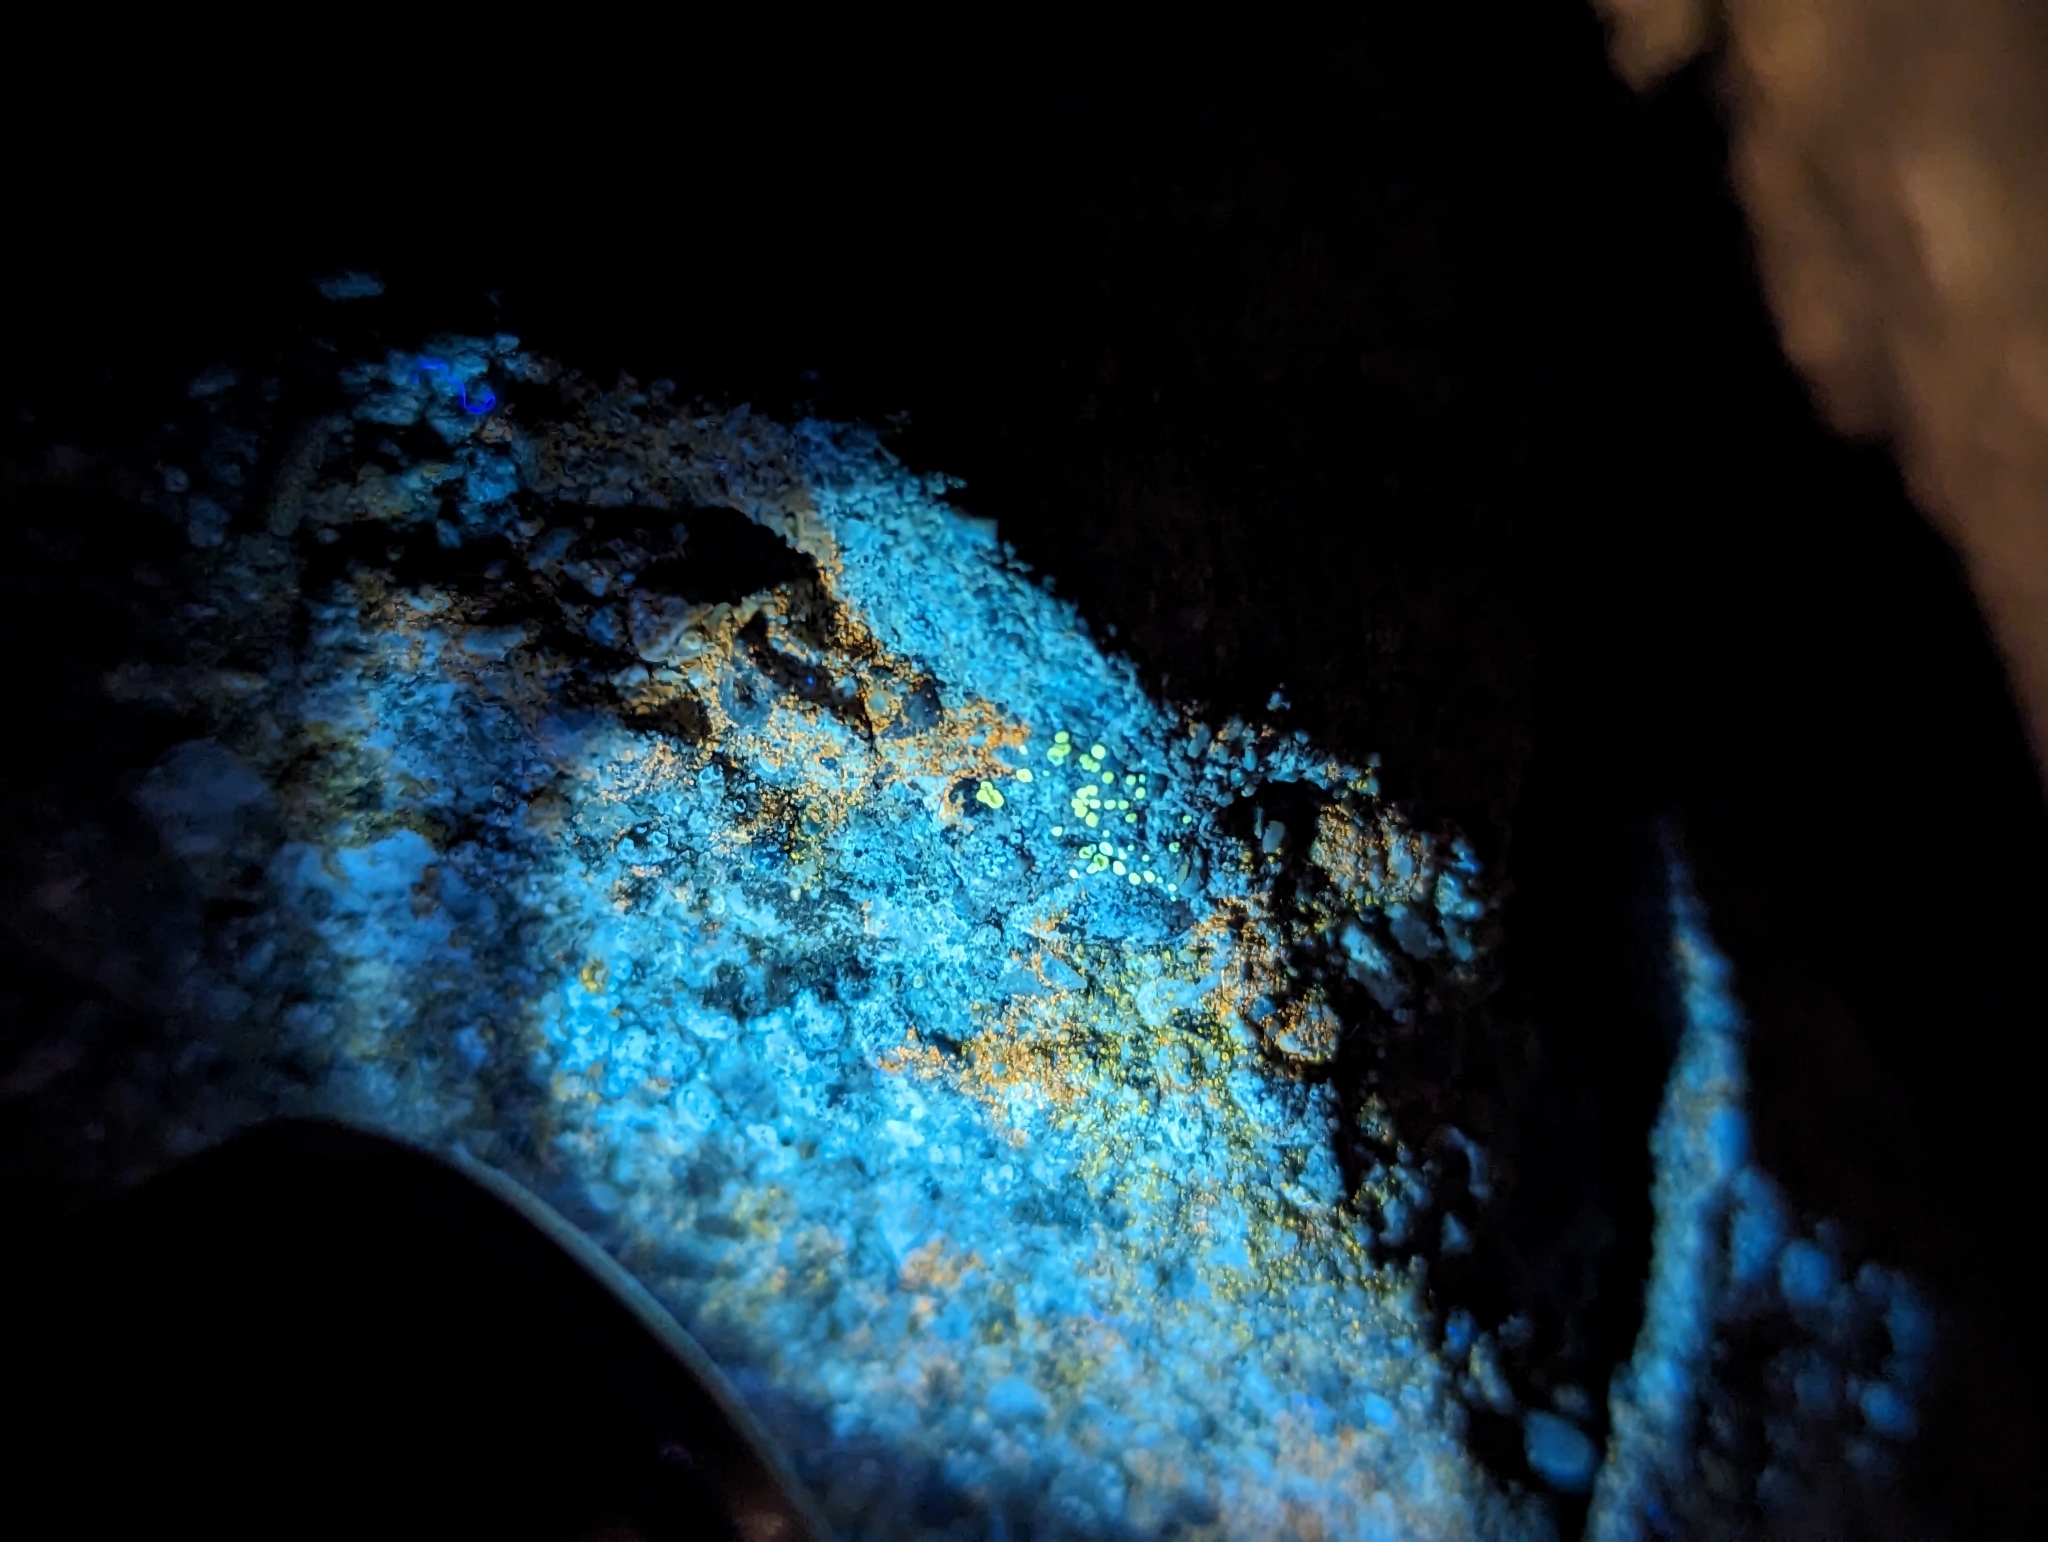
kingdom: Fungi
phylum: Ascomycota
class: Lecanoromycetes
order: Lecanorales
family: Lecanoraceae
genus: Polyozosia
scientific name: Polyozosia semipallida
